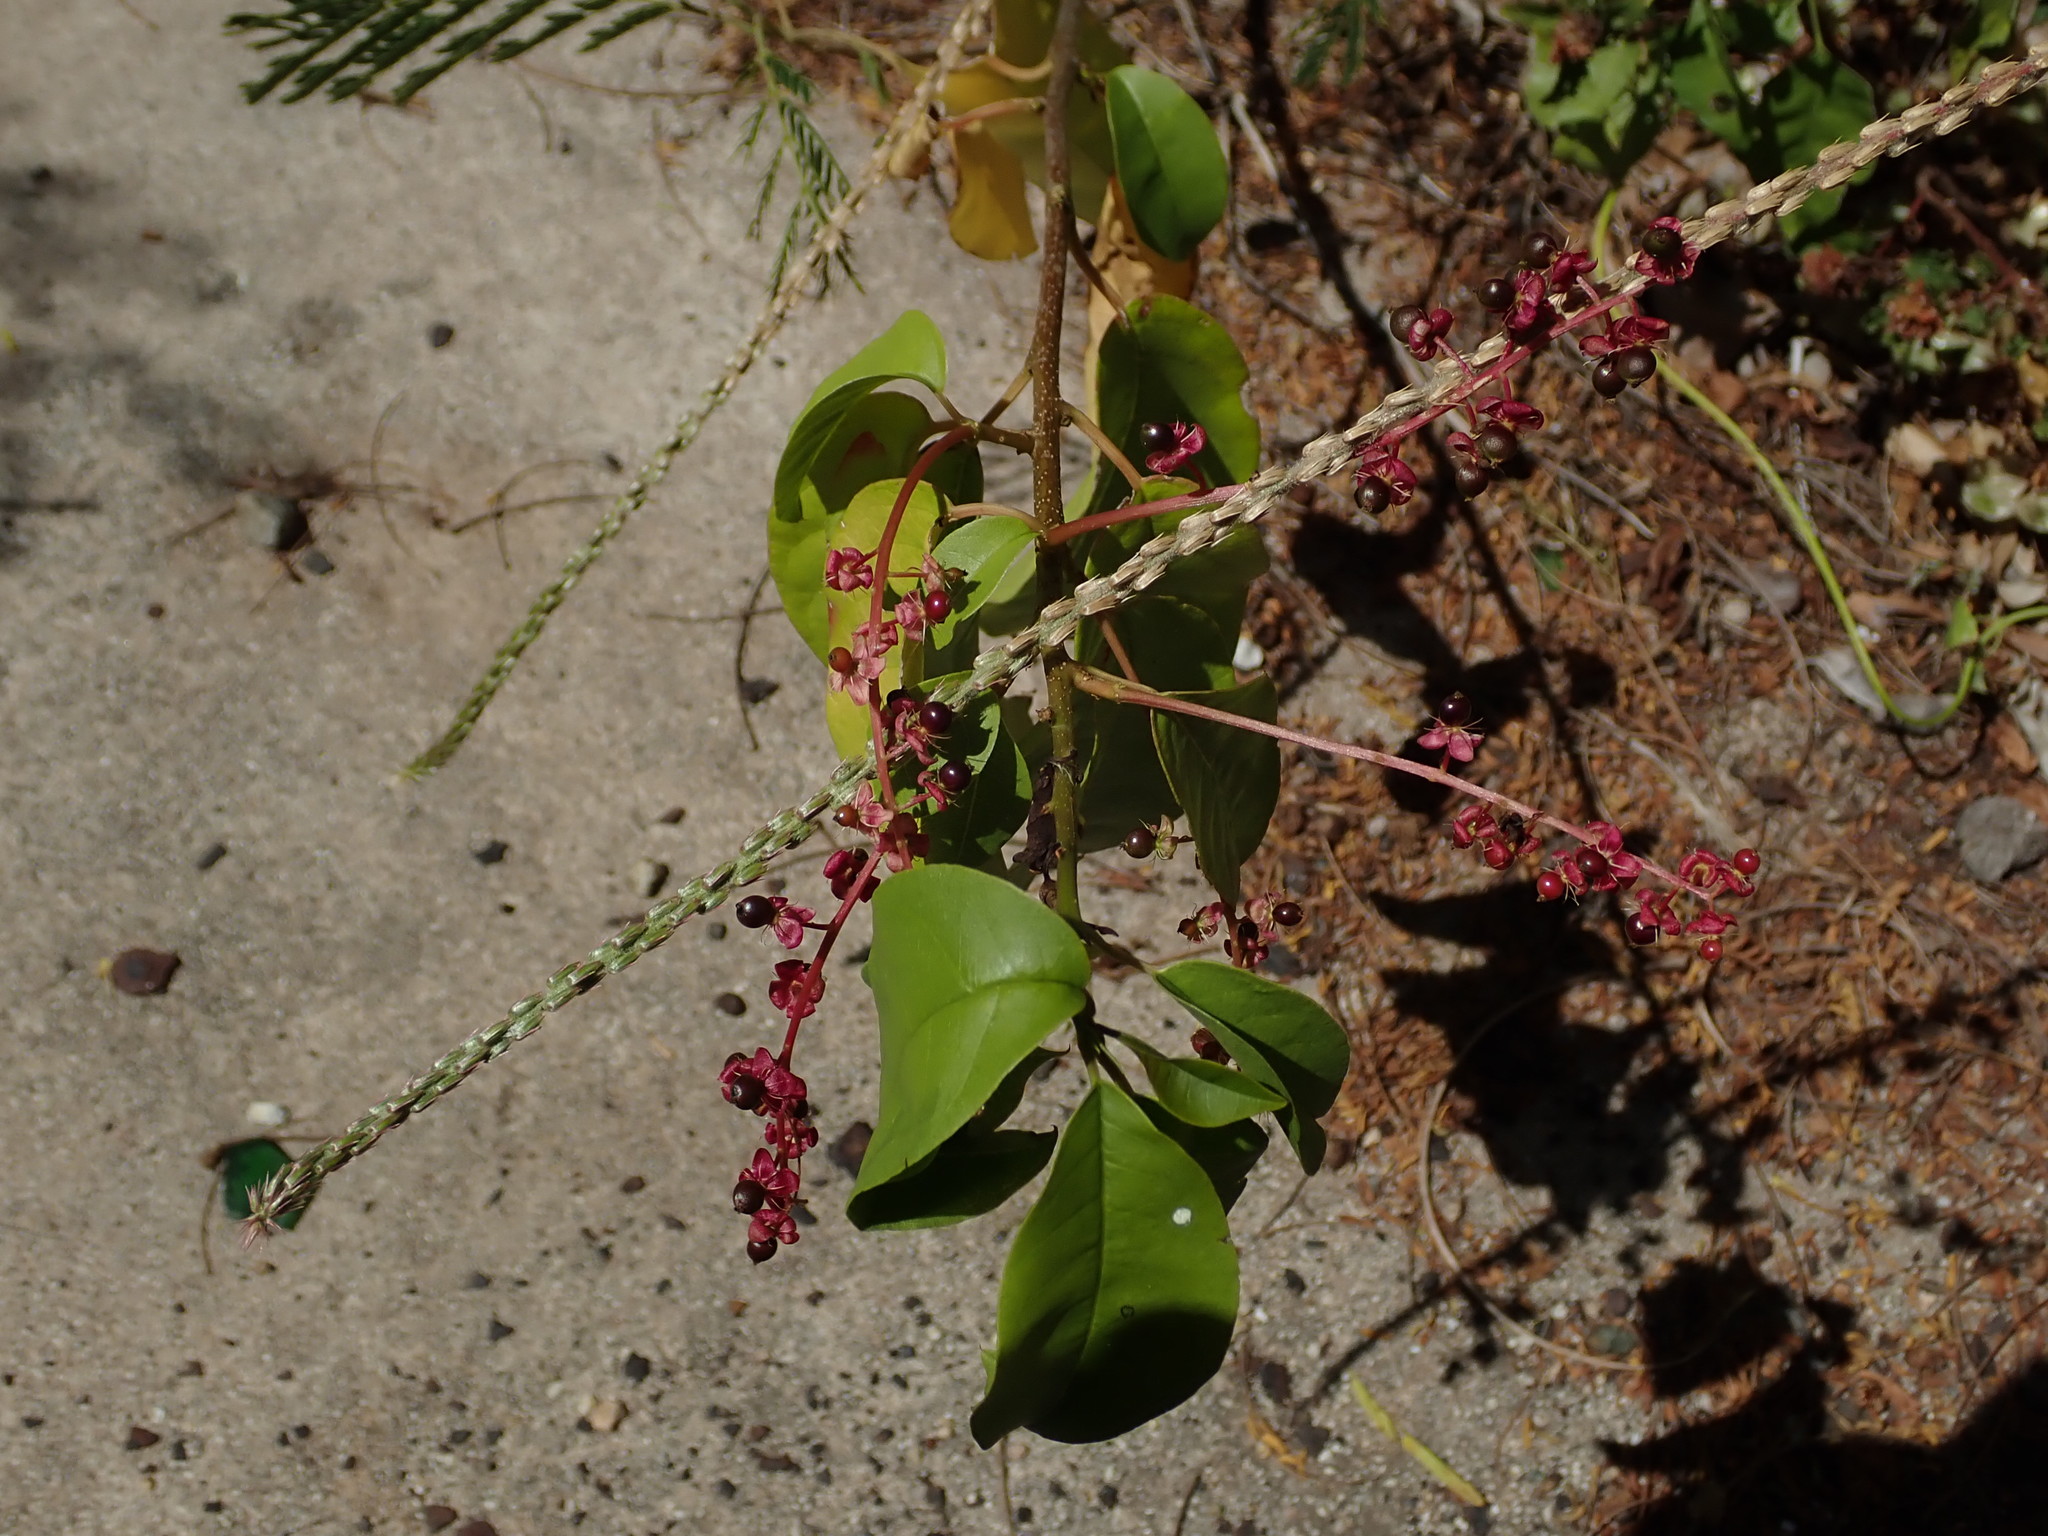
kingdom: Plantae
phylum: Tracheophyta
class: Magnoliopsida
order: Caryophyllales
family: Phytolaccaceae
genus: Trichostigma
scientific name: Trichostigma octandrum
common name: Basket wiss
